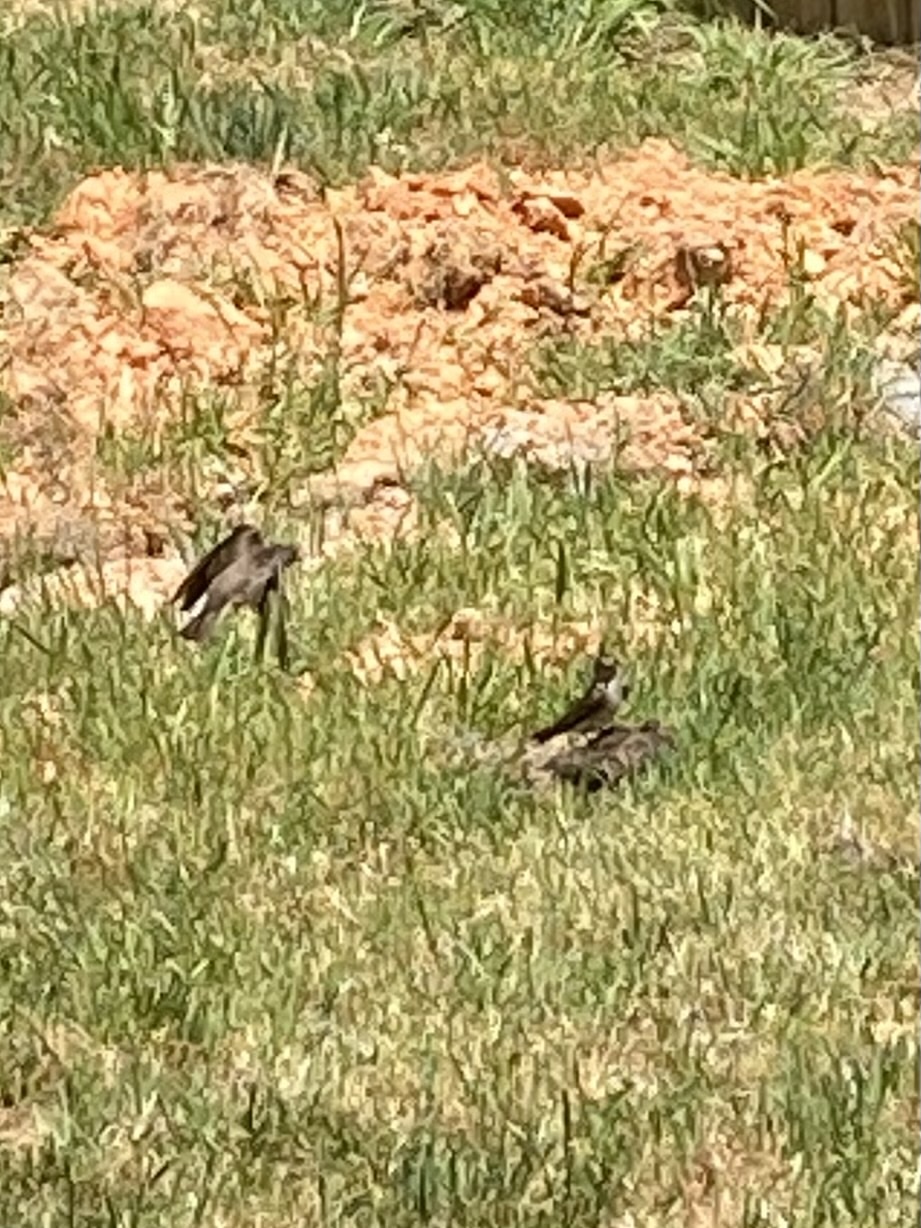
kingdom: Animalia
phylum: Chordata
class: Aves
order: Passeriformes
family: Hirundinidae
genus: Stelgidopteryx
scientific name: Stelgidopteryx serripennis
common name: Northern rough-winged swallow
